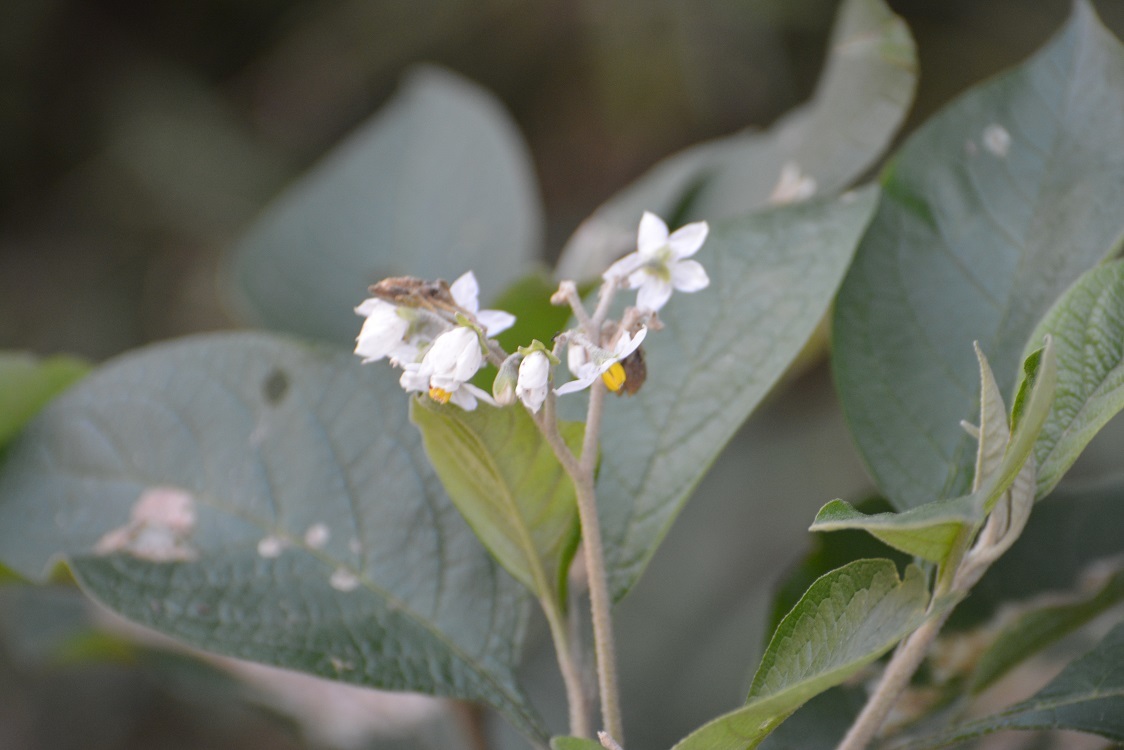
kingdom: Plantae
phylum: Tracheophyta
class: Magnoliopsida
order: Solanales
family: Solanaceae
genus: Solanum
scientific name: Solanum chiapasense
